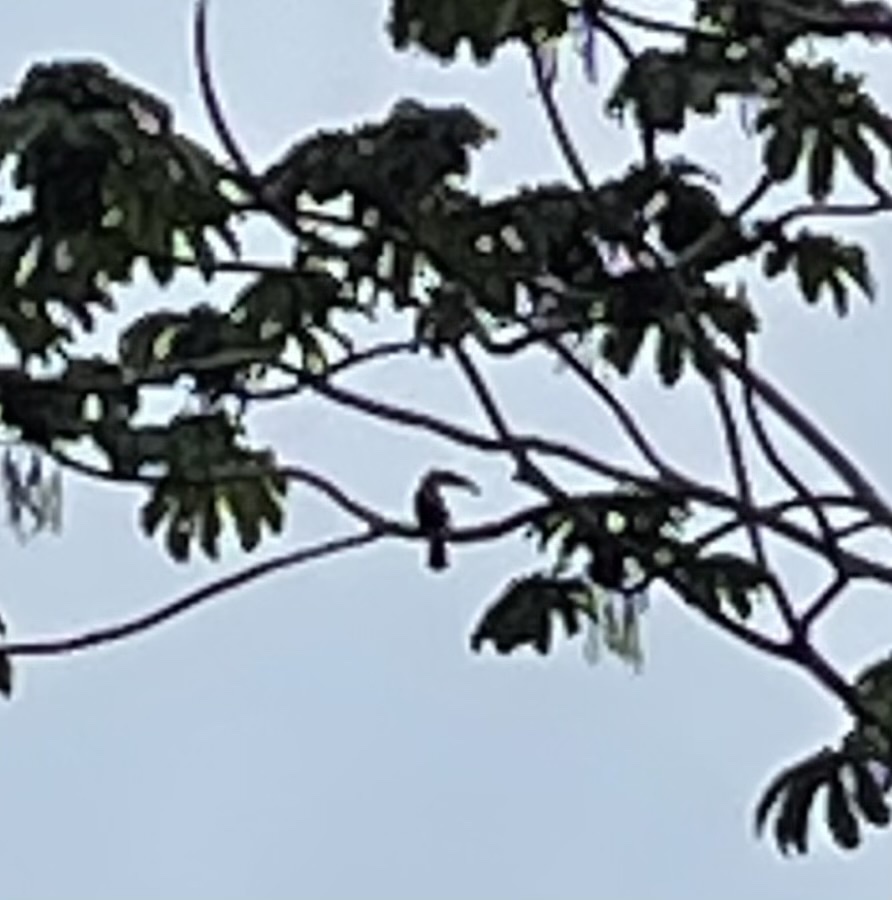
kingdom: Animalia
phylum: Chordata
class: Aves
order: Piciformes
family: Ramphastidae
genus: Ramphastos
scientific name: Ramphastos sulfuratus
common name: Keel-billed toucan
